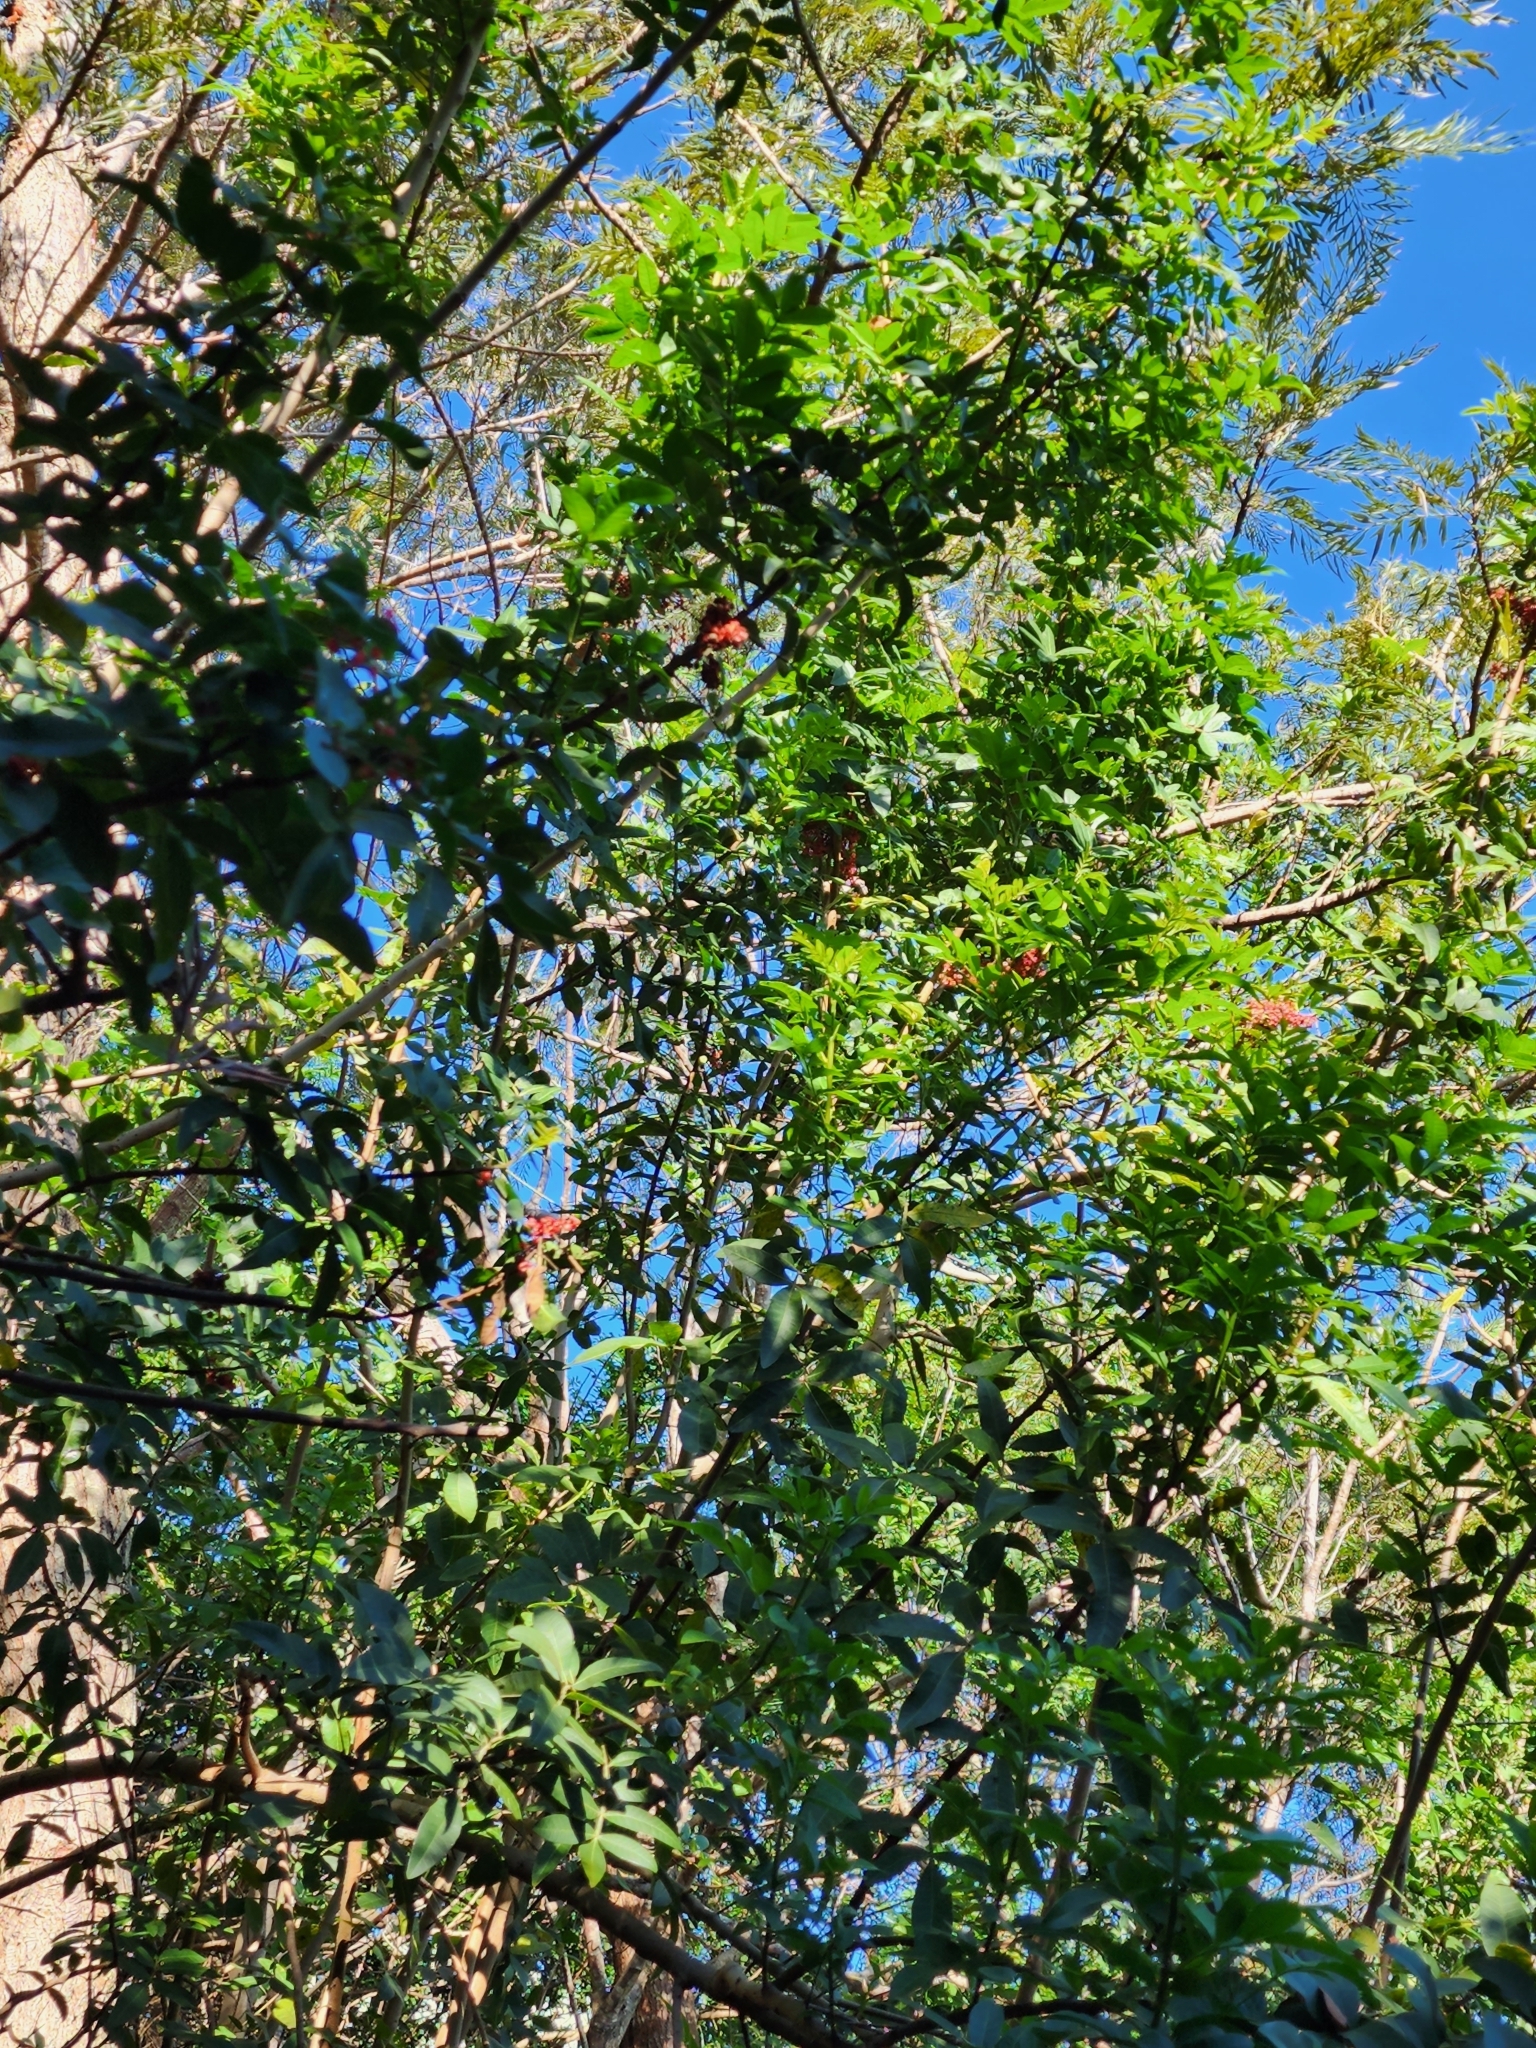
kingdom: Plantae
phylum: Tracheophyta
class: Magnoliopsida
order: Sapindales
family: Anacardiaceae
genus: Schinus
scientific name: Schinus terebinthifolia
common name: Brazilian peppertree
